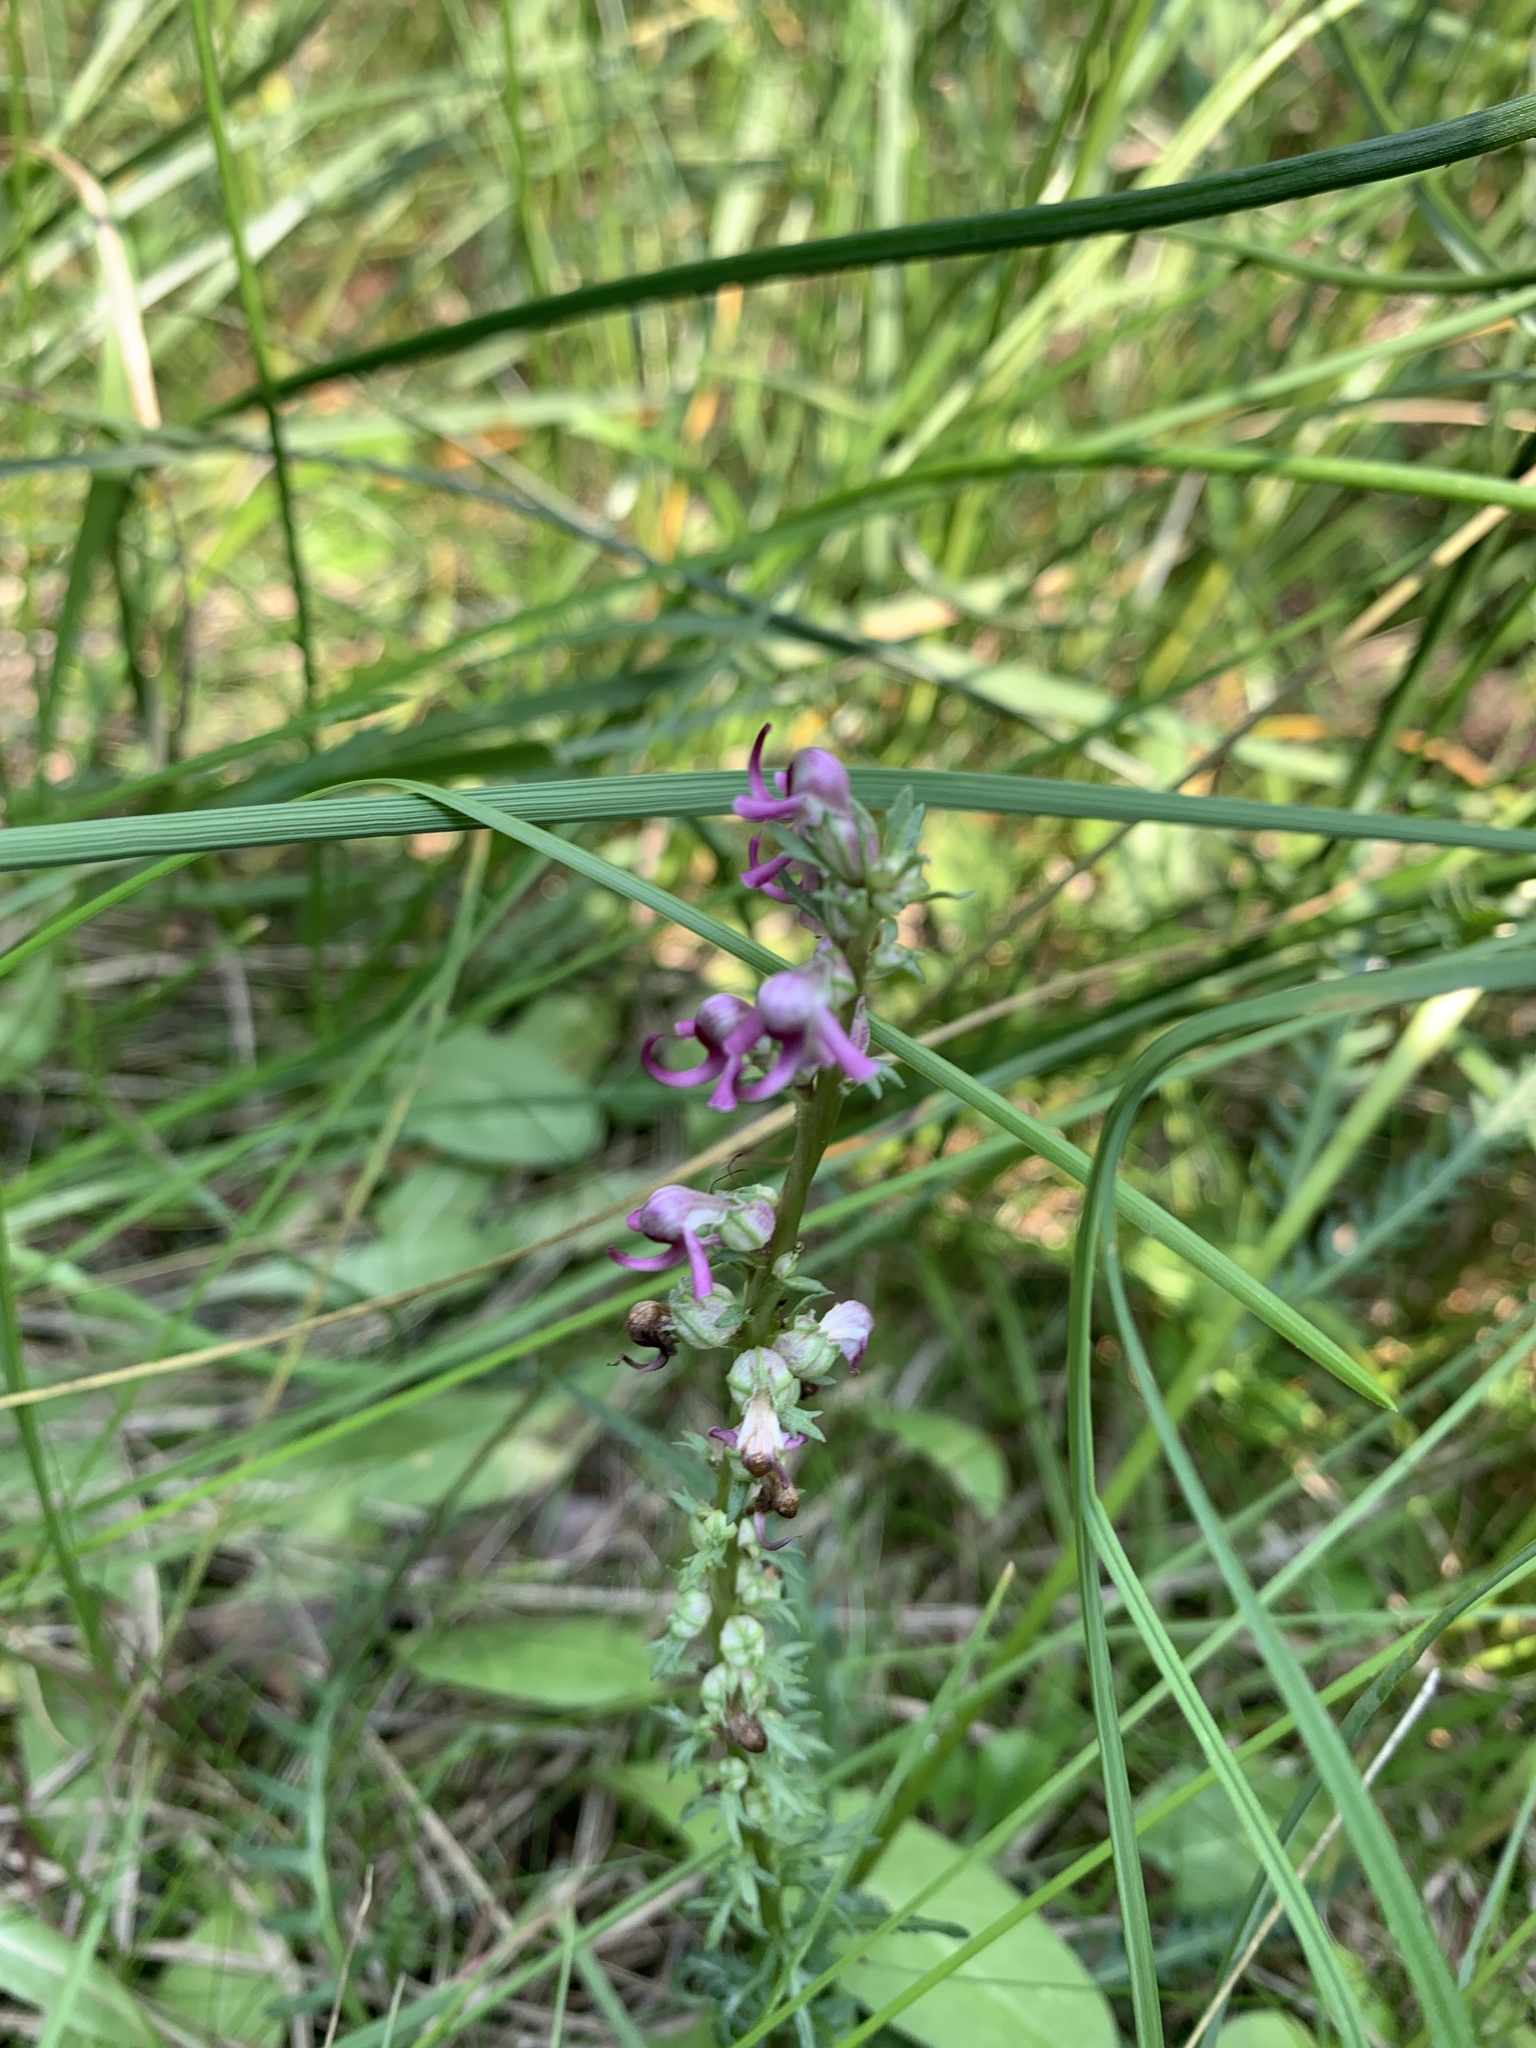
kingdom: Plantae
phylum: Tracheophyta
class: Magnoliopsida
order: Lamiales
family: Orobanchaceae
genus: Pedicularis
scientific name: Pedicularis groenlandica
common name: Elephant's-head
